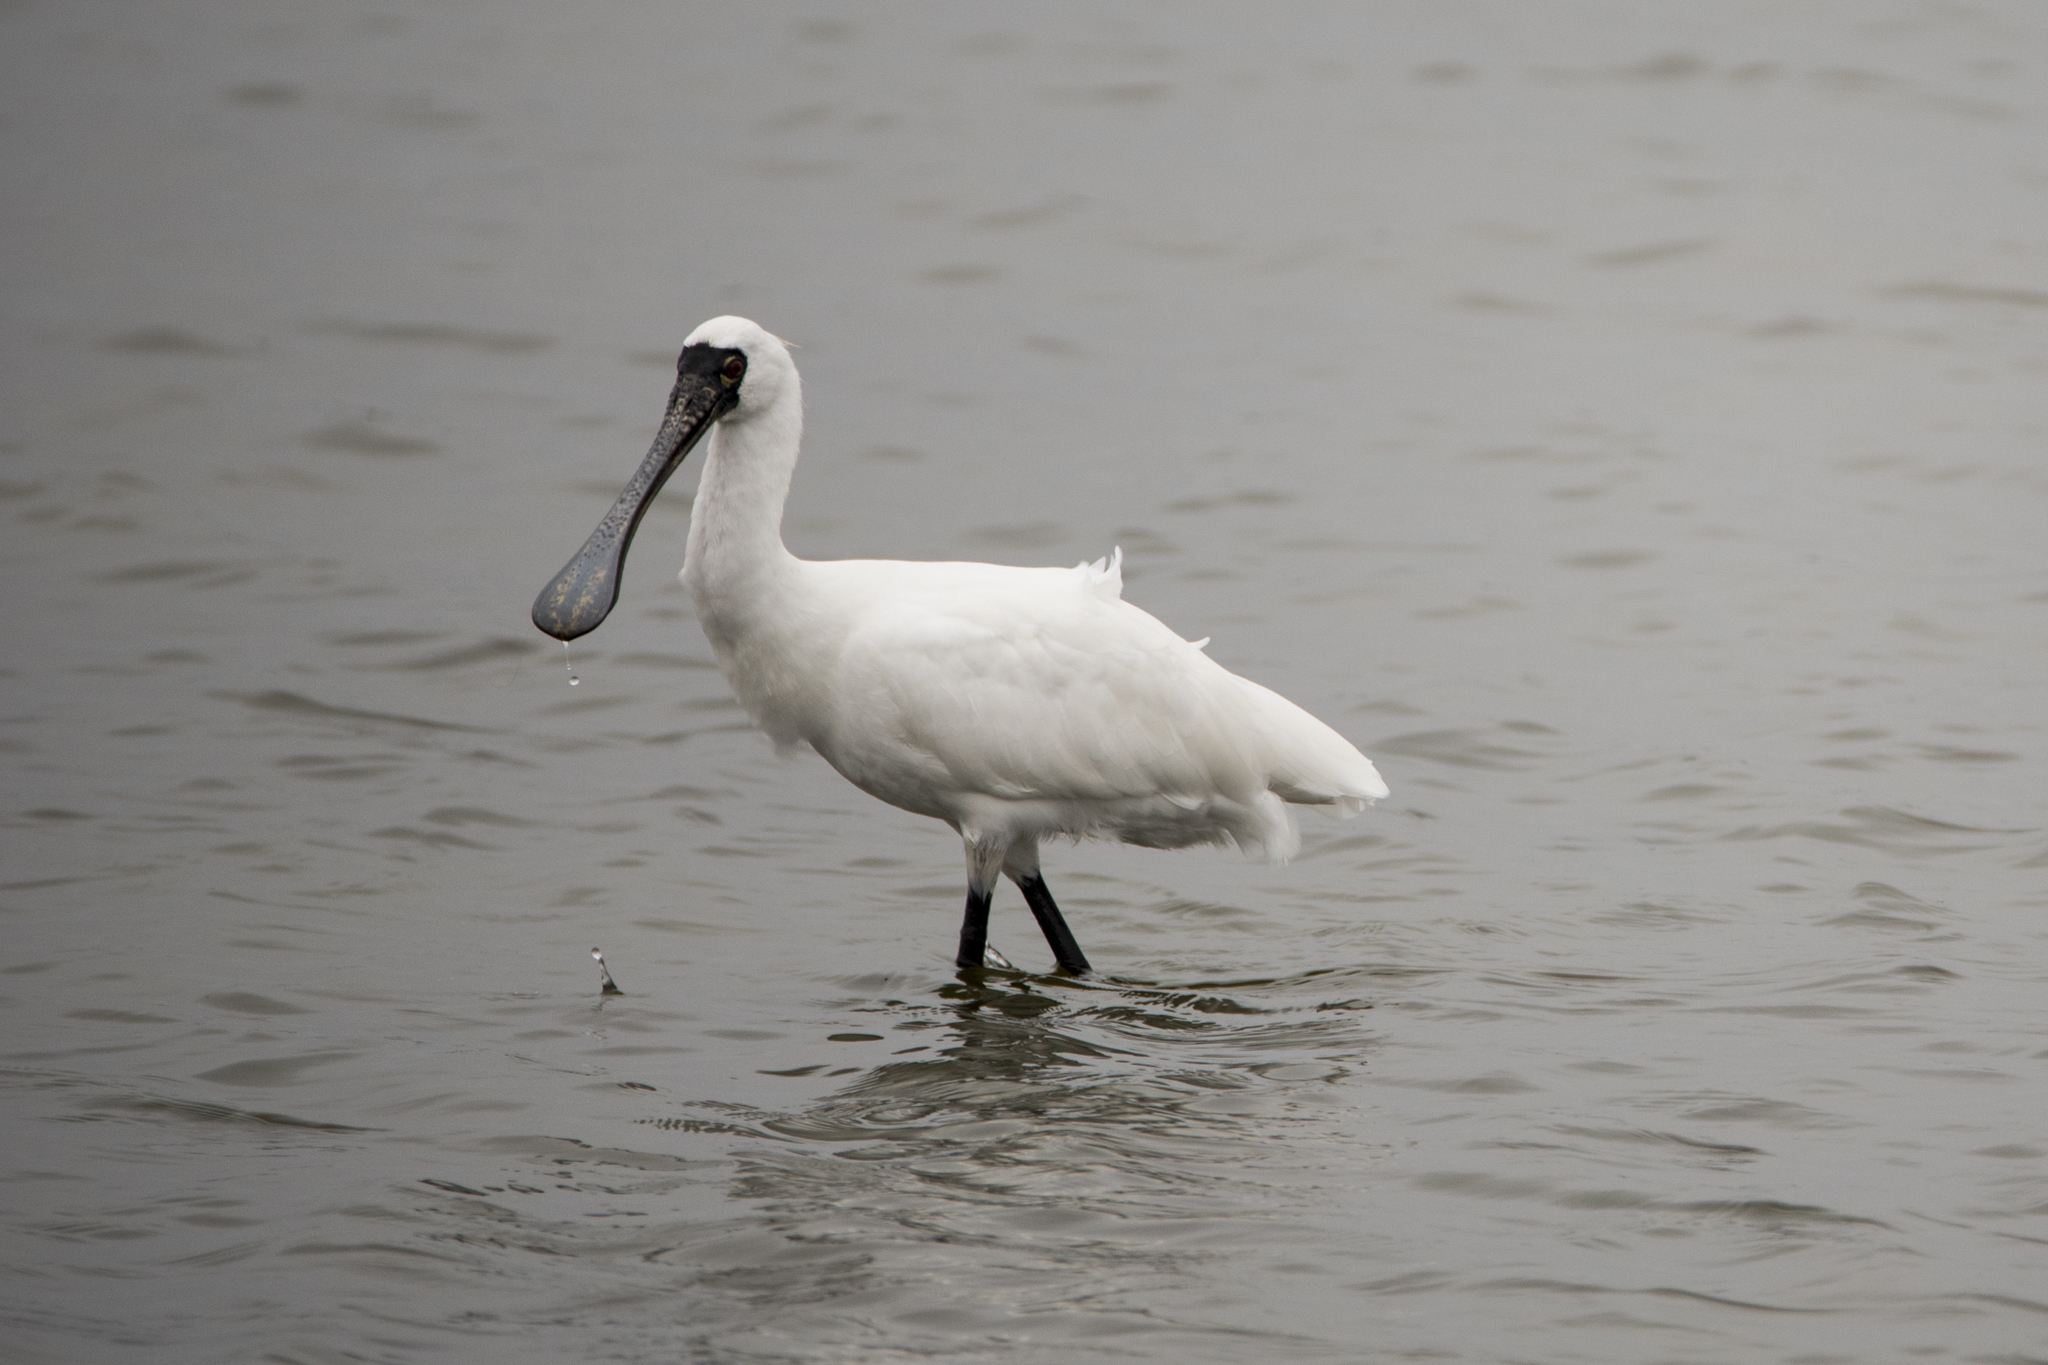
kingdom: Animalia
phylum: Chordata
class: Aves
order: Pelecaniformes
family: Threskiornithidae
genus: Platalea
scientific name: Platalea minor
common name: Black-faced spoonbill
